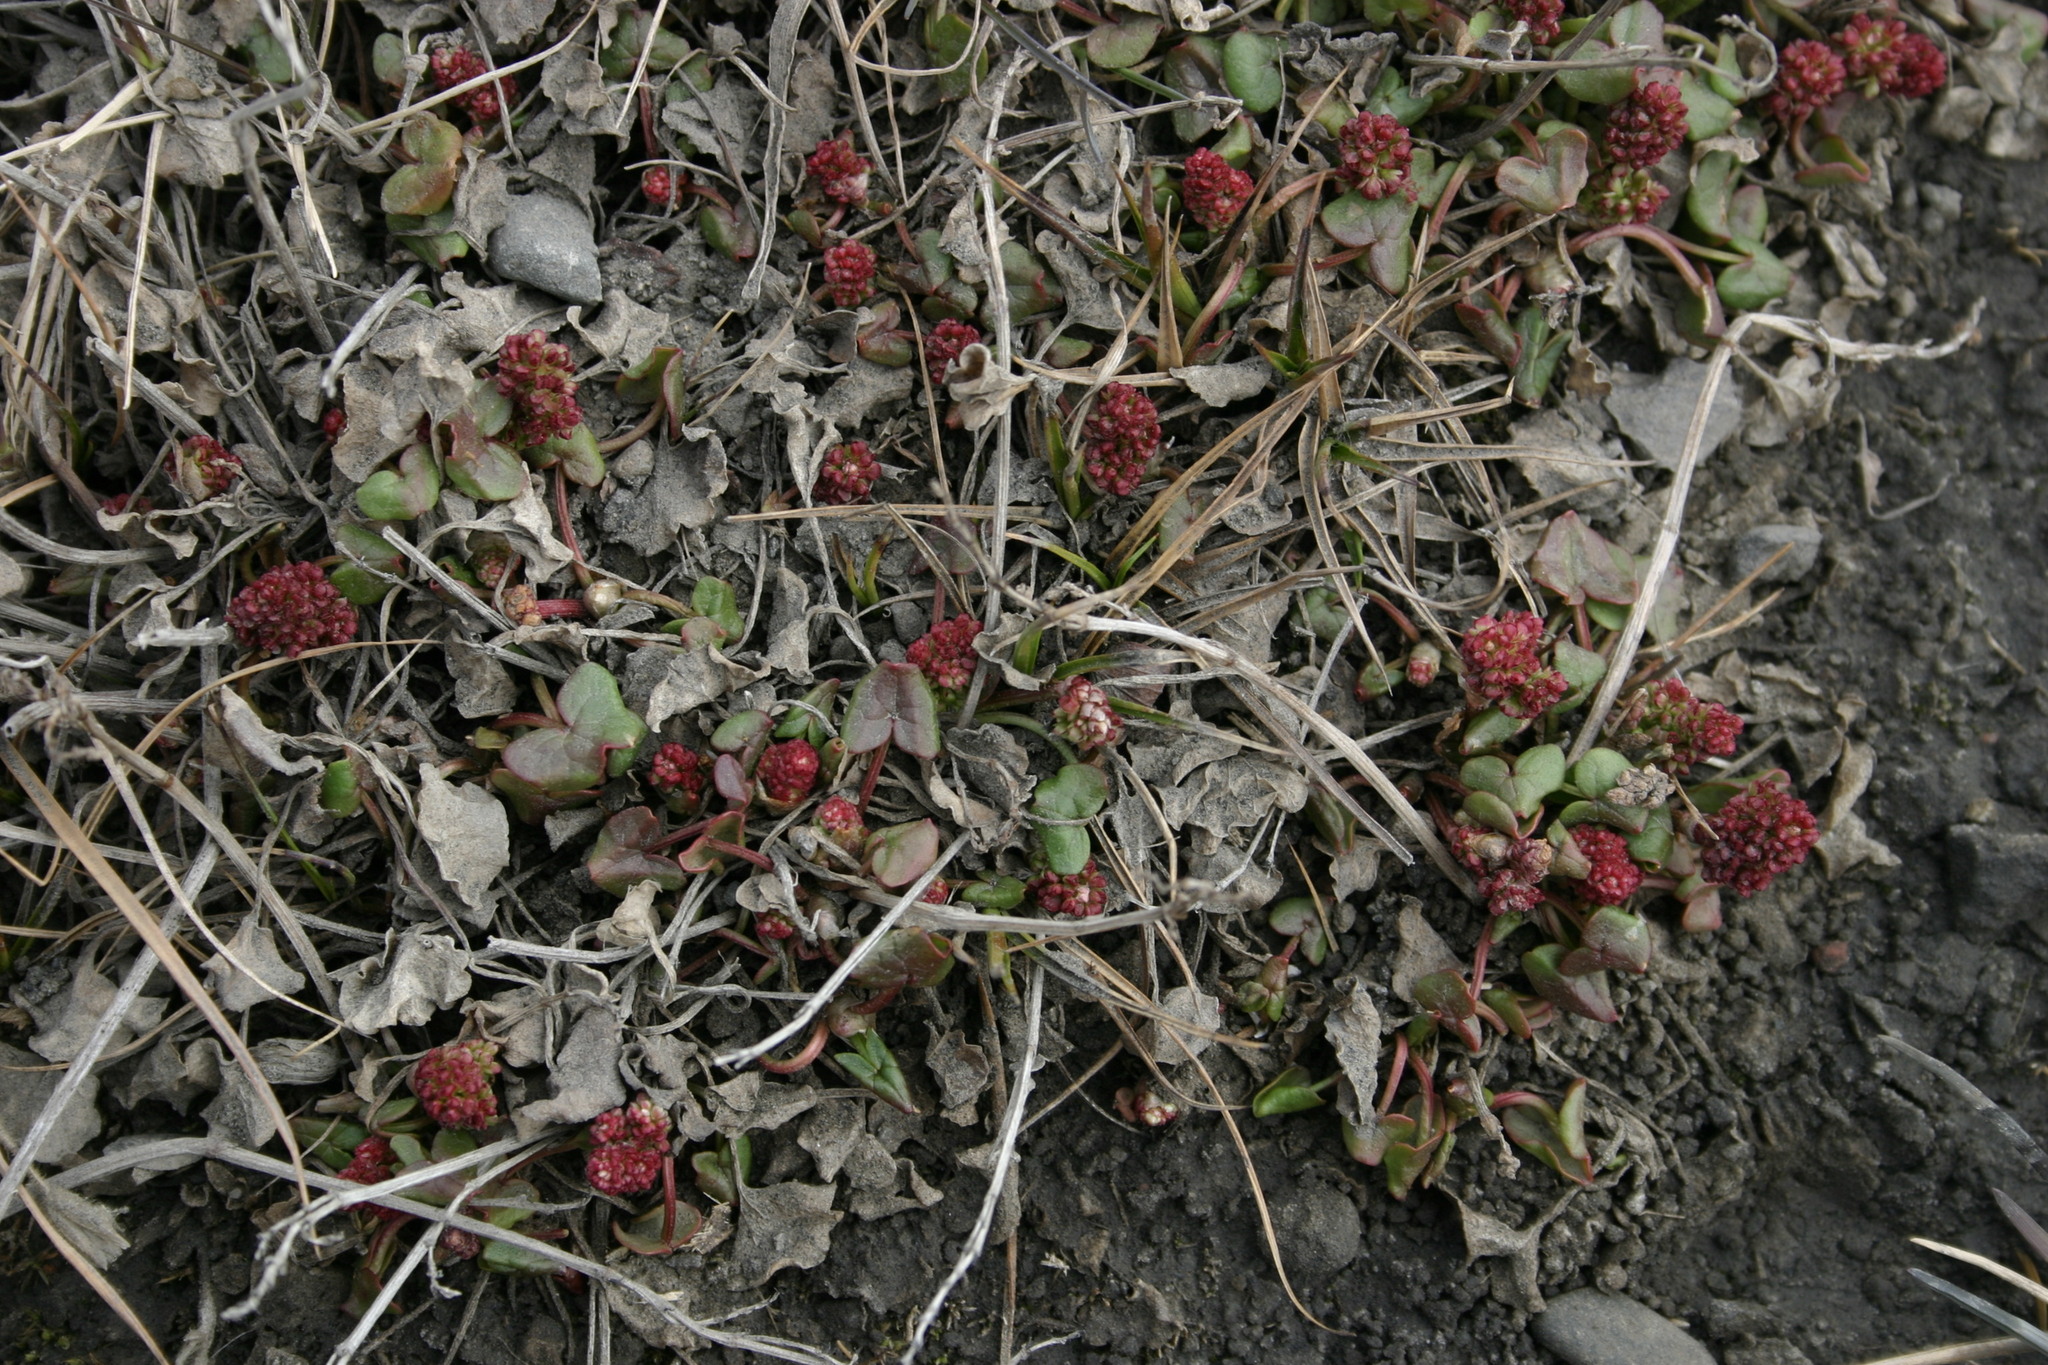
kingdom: Plantae
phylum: Tracheophyta
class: Magnoliopsida
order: Caryophyllales
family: Polygonaceae
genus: Oxyria
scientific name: Oxyria digyna
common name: Alpine mountain-sorrel
